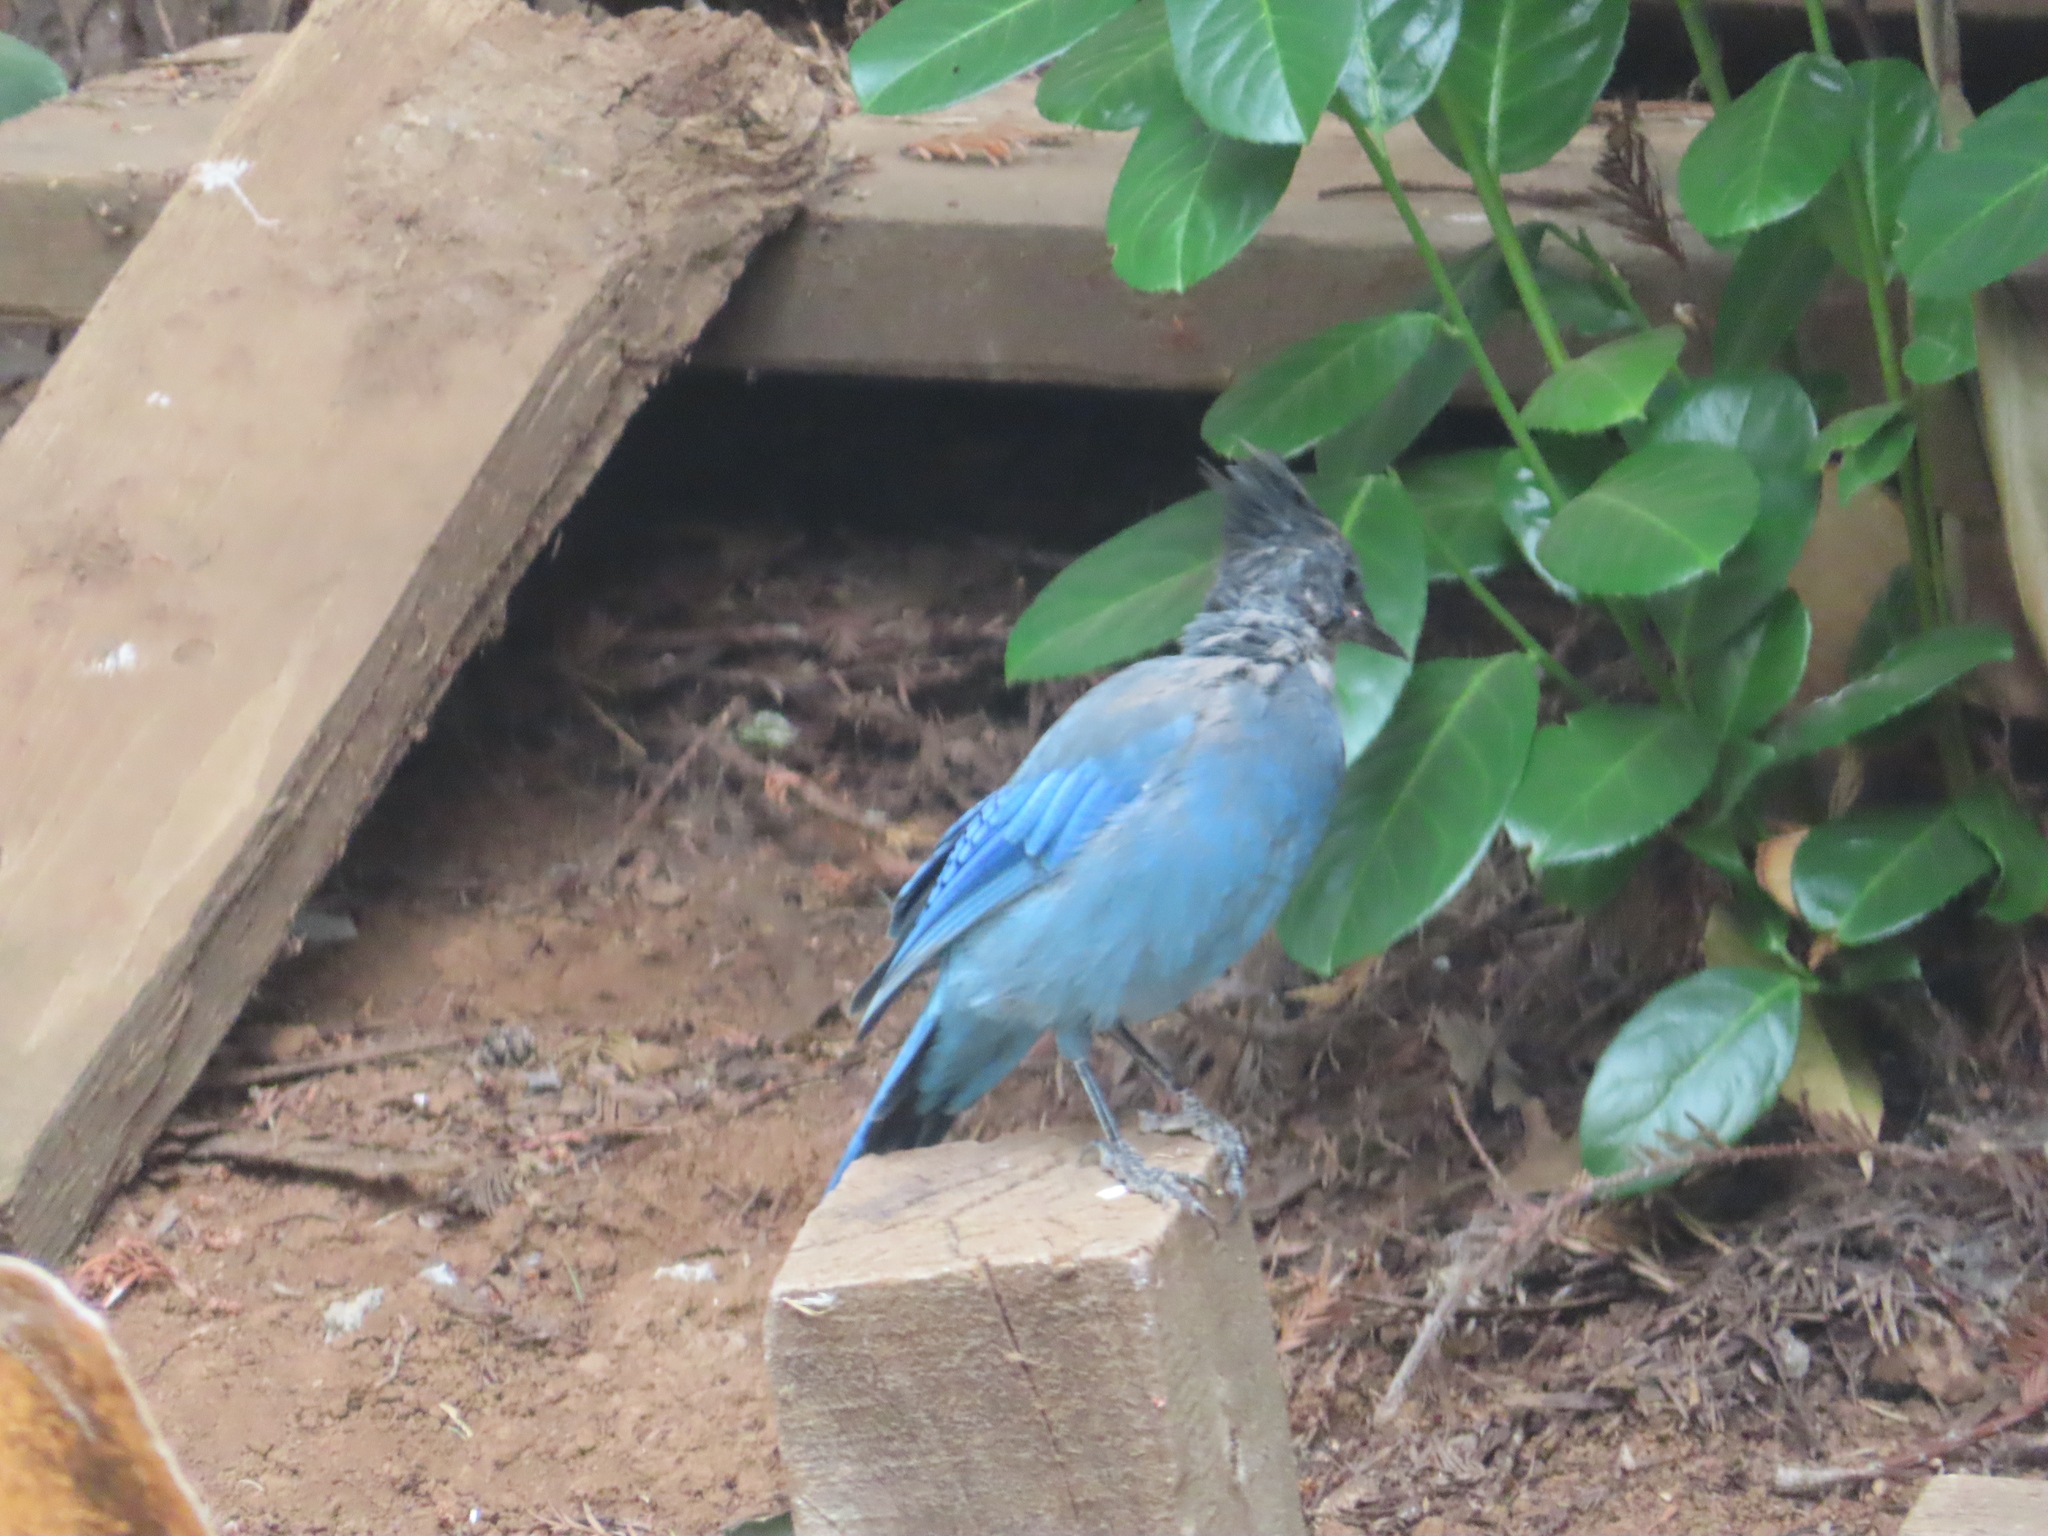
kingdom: Animalia
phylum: Chordata
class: Aves
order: Passeriformes
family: Corvidae
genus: Cyanocitta
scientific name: Cyanocitta stelleri
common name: Steller's jay
